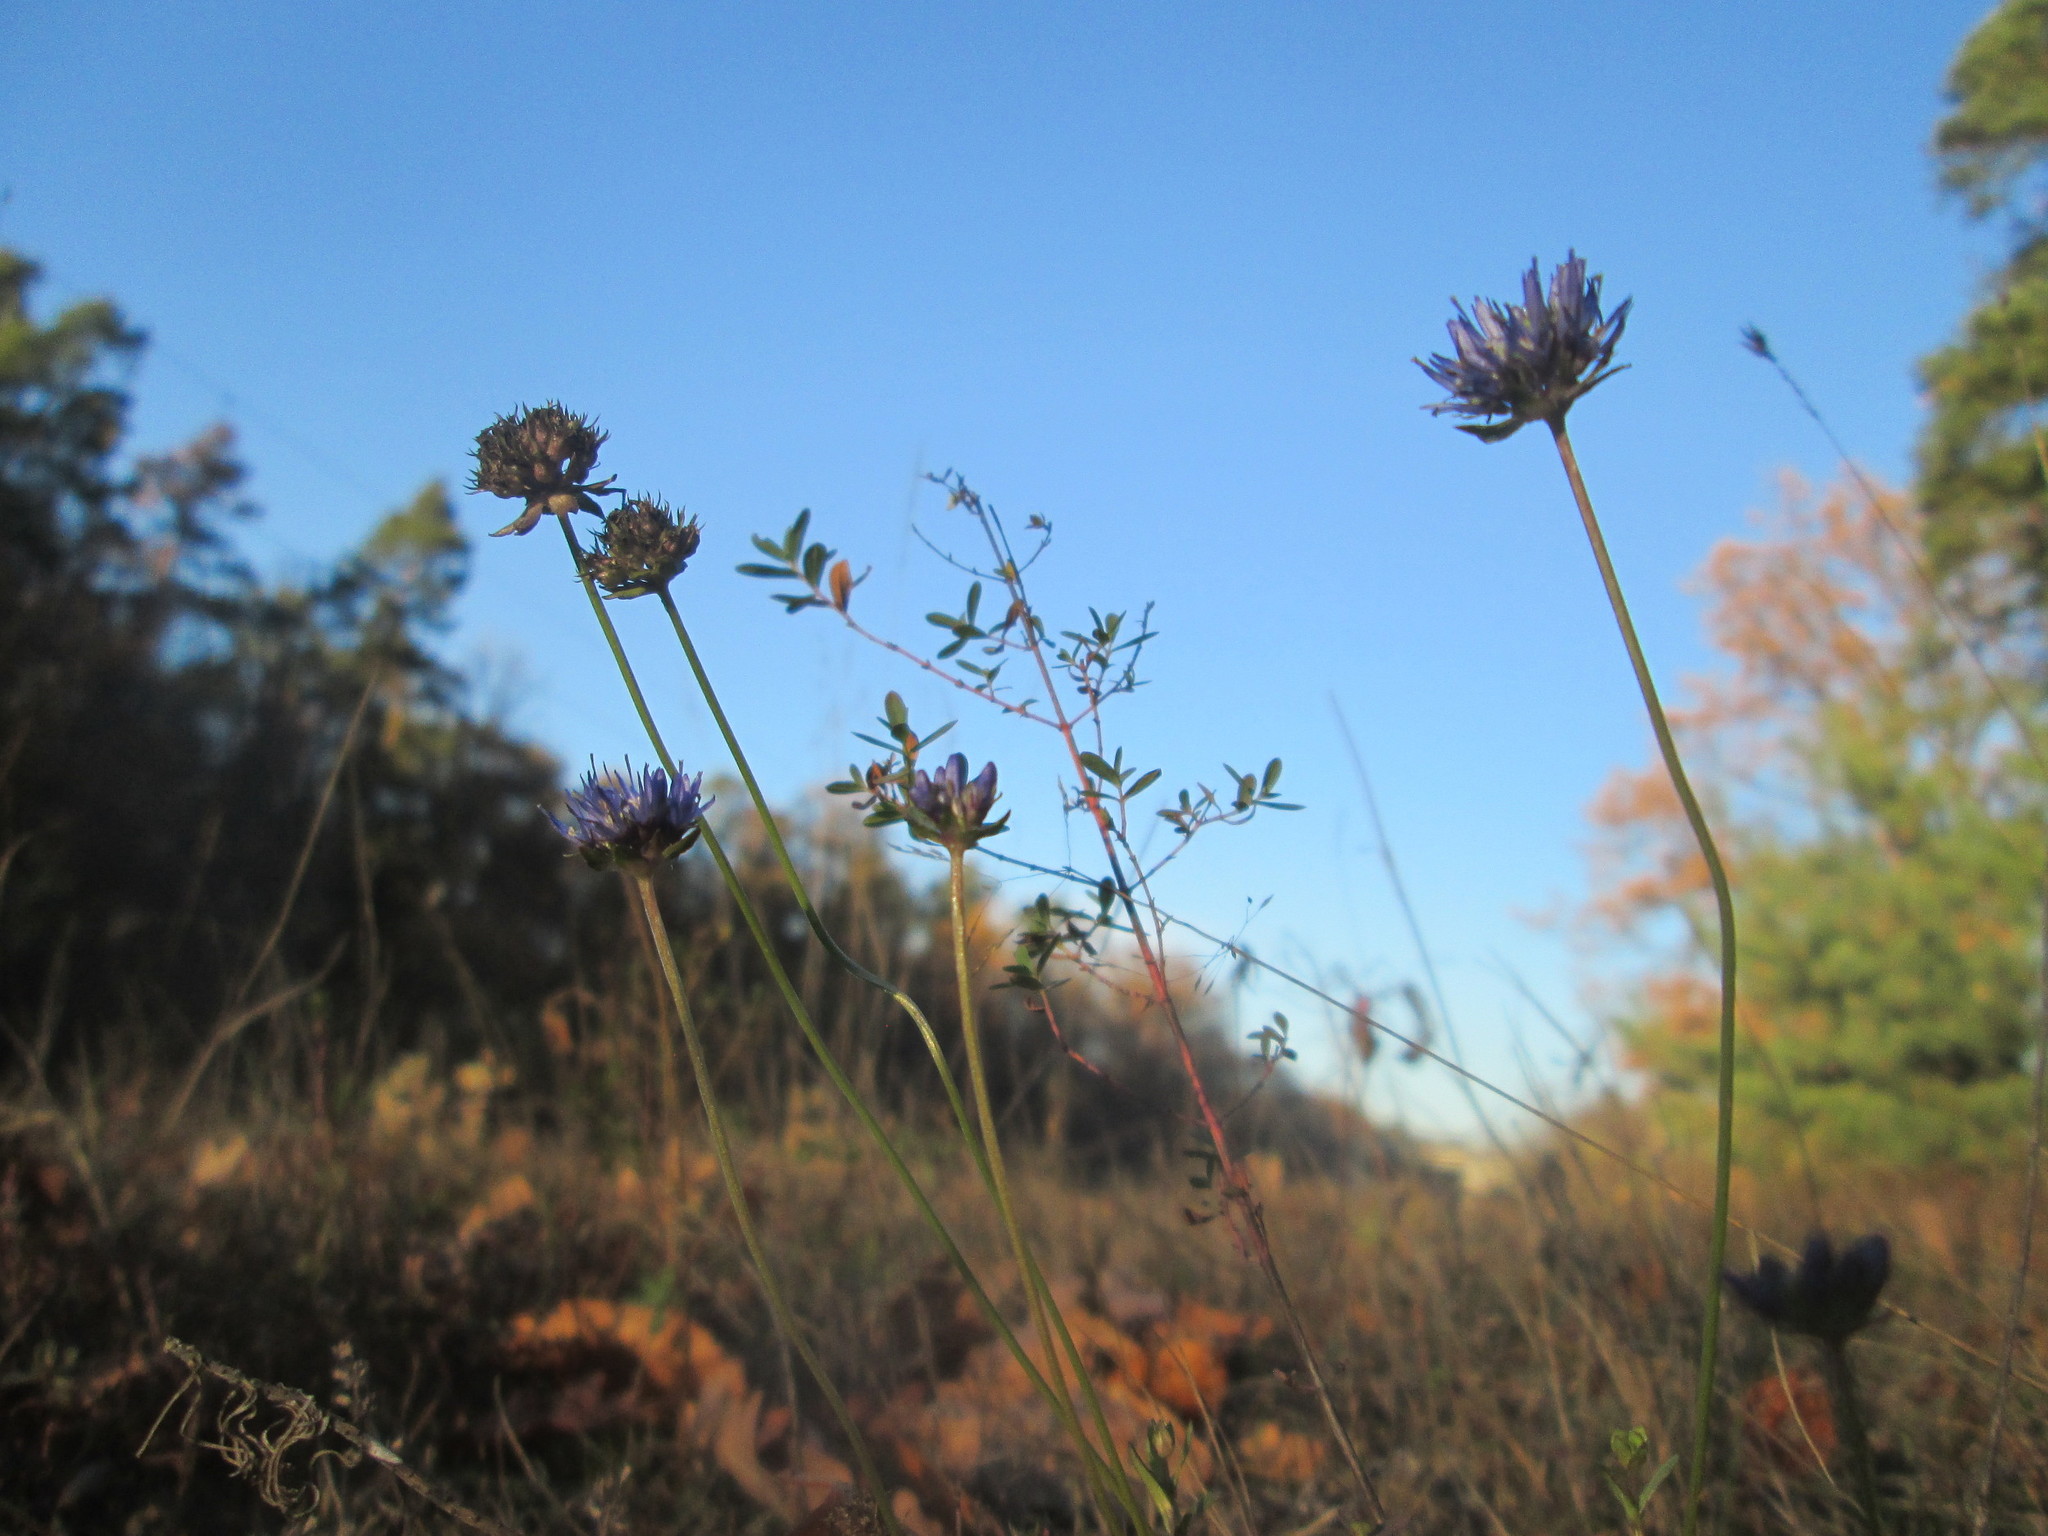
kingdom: Plantae
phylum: Tracheophyta
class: Magnoliopsida
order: Asterales
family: Campanulaceae
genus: Jasione
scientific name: Jasione montana
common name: Sheep's-bit
